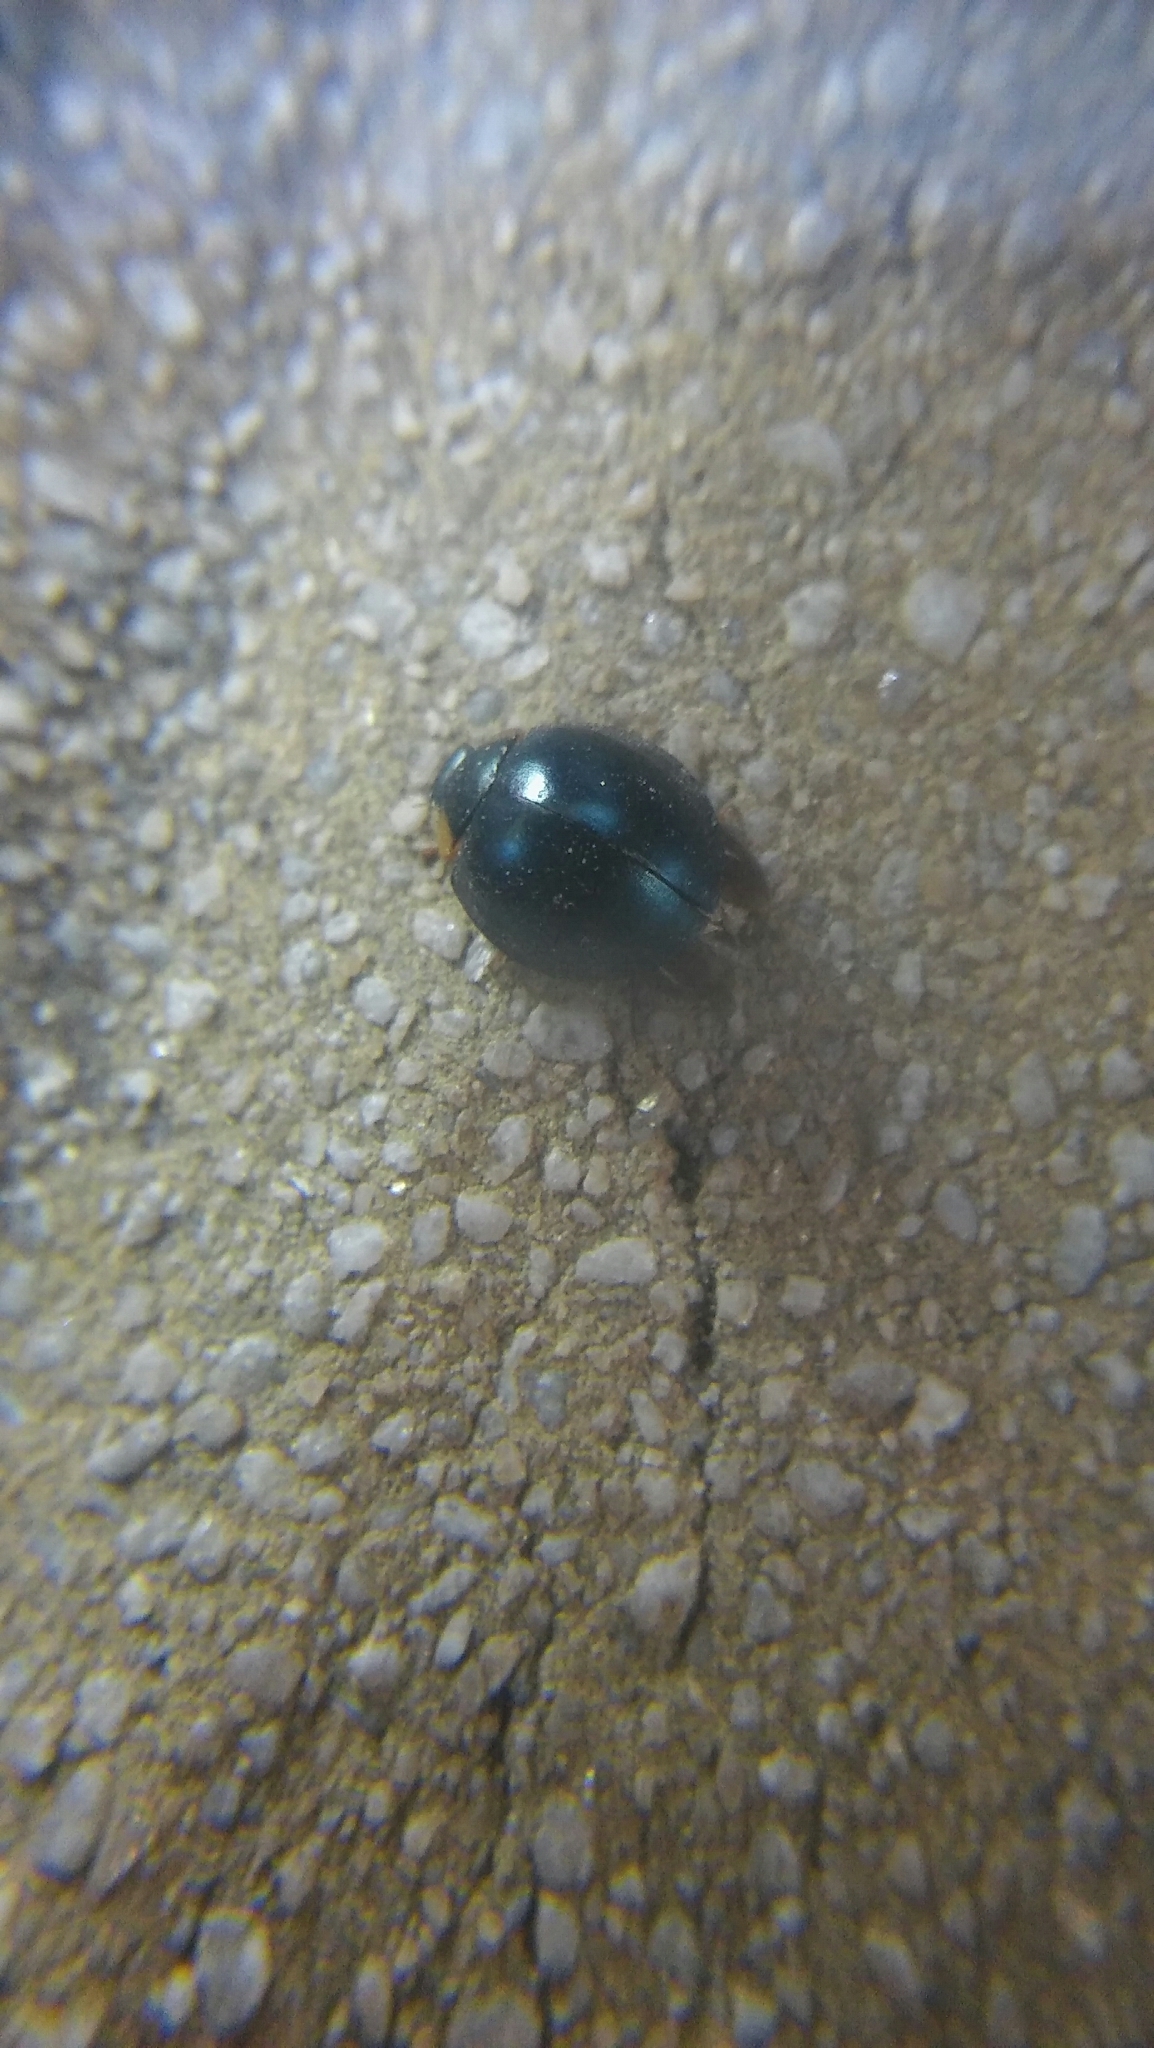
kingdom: Animalia
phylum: Arthropoda
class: Insecta
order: Coleoptera
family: Coccinellidae
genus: Curinus
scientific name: Curinus coeruleus
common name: Ladybird beetle
